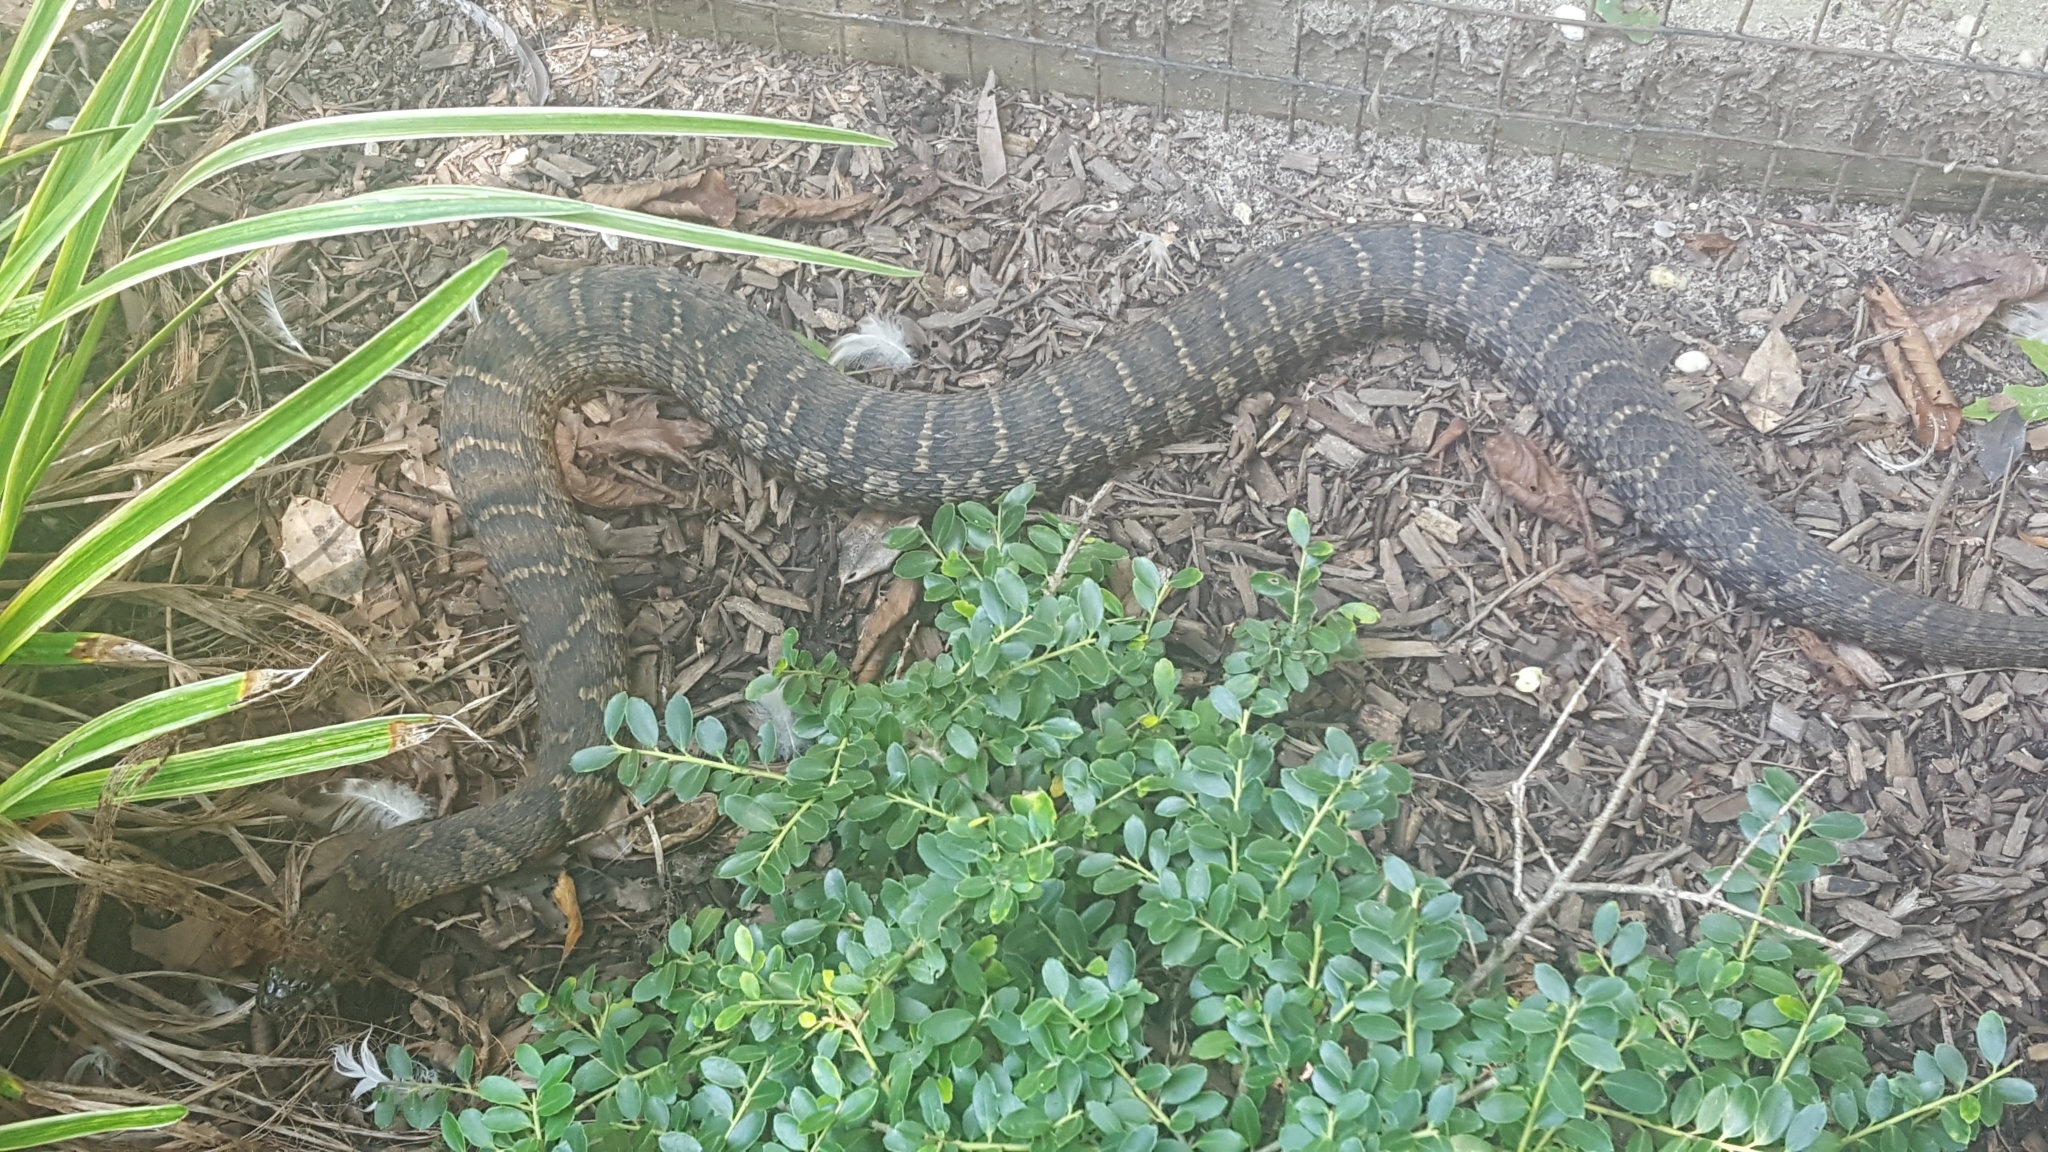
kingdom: Animalia
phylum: Chordata
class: Squamata
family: Colubridae
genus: Nerodia
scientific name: Nerodia sipedon
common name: Northern water snake
